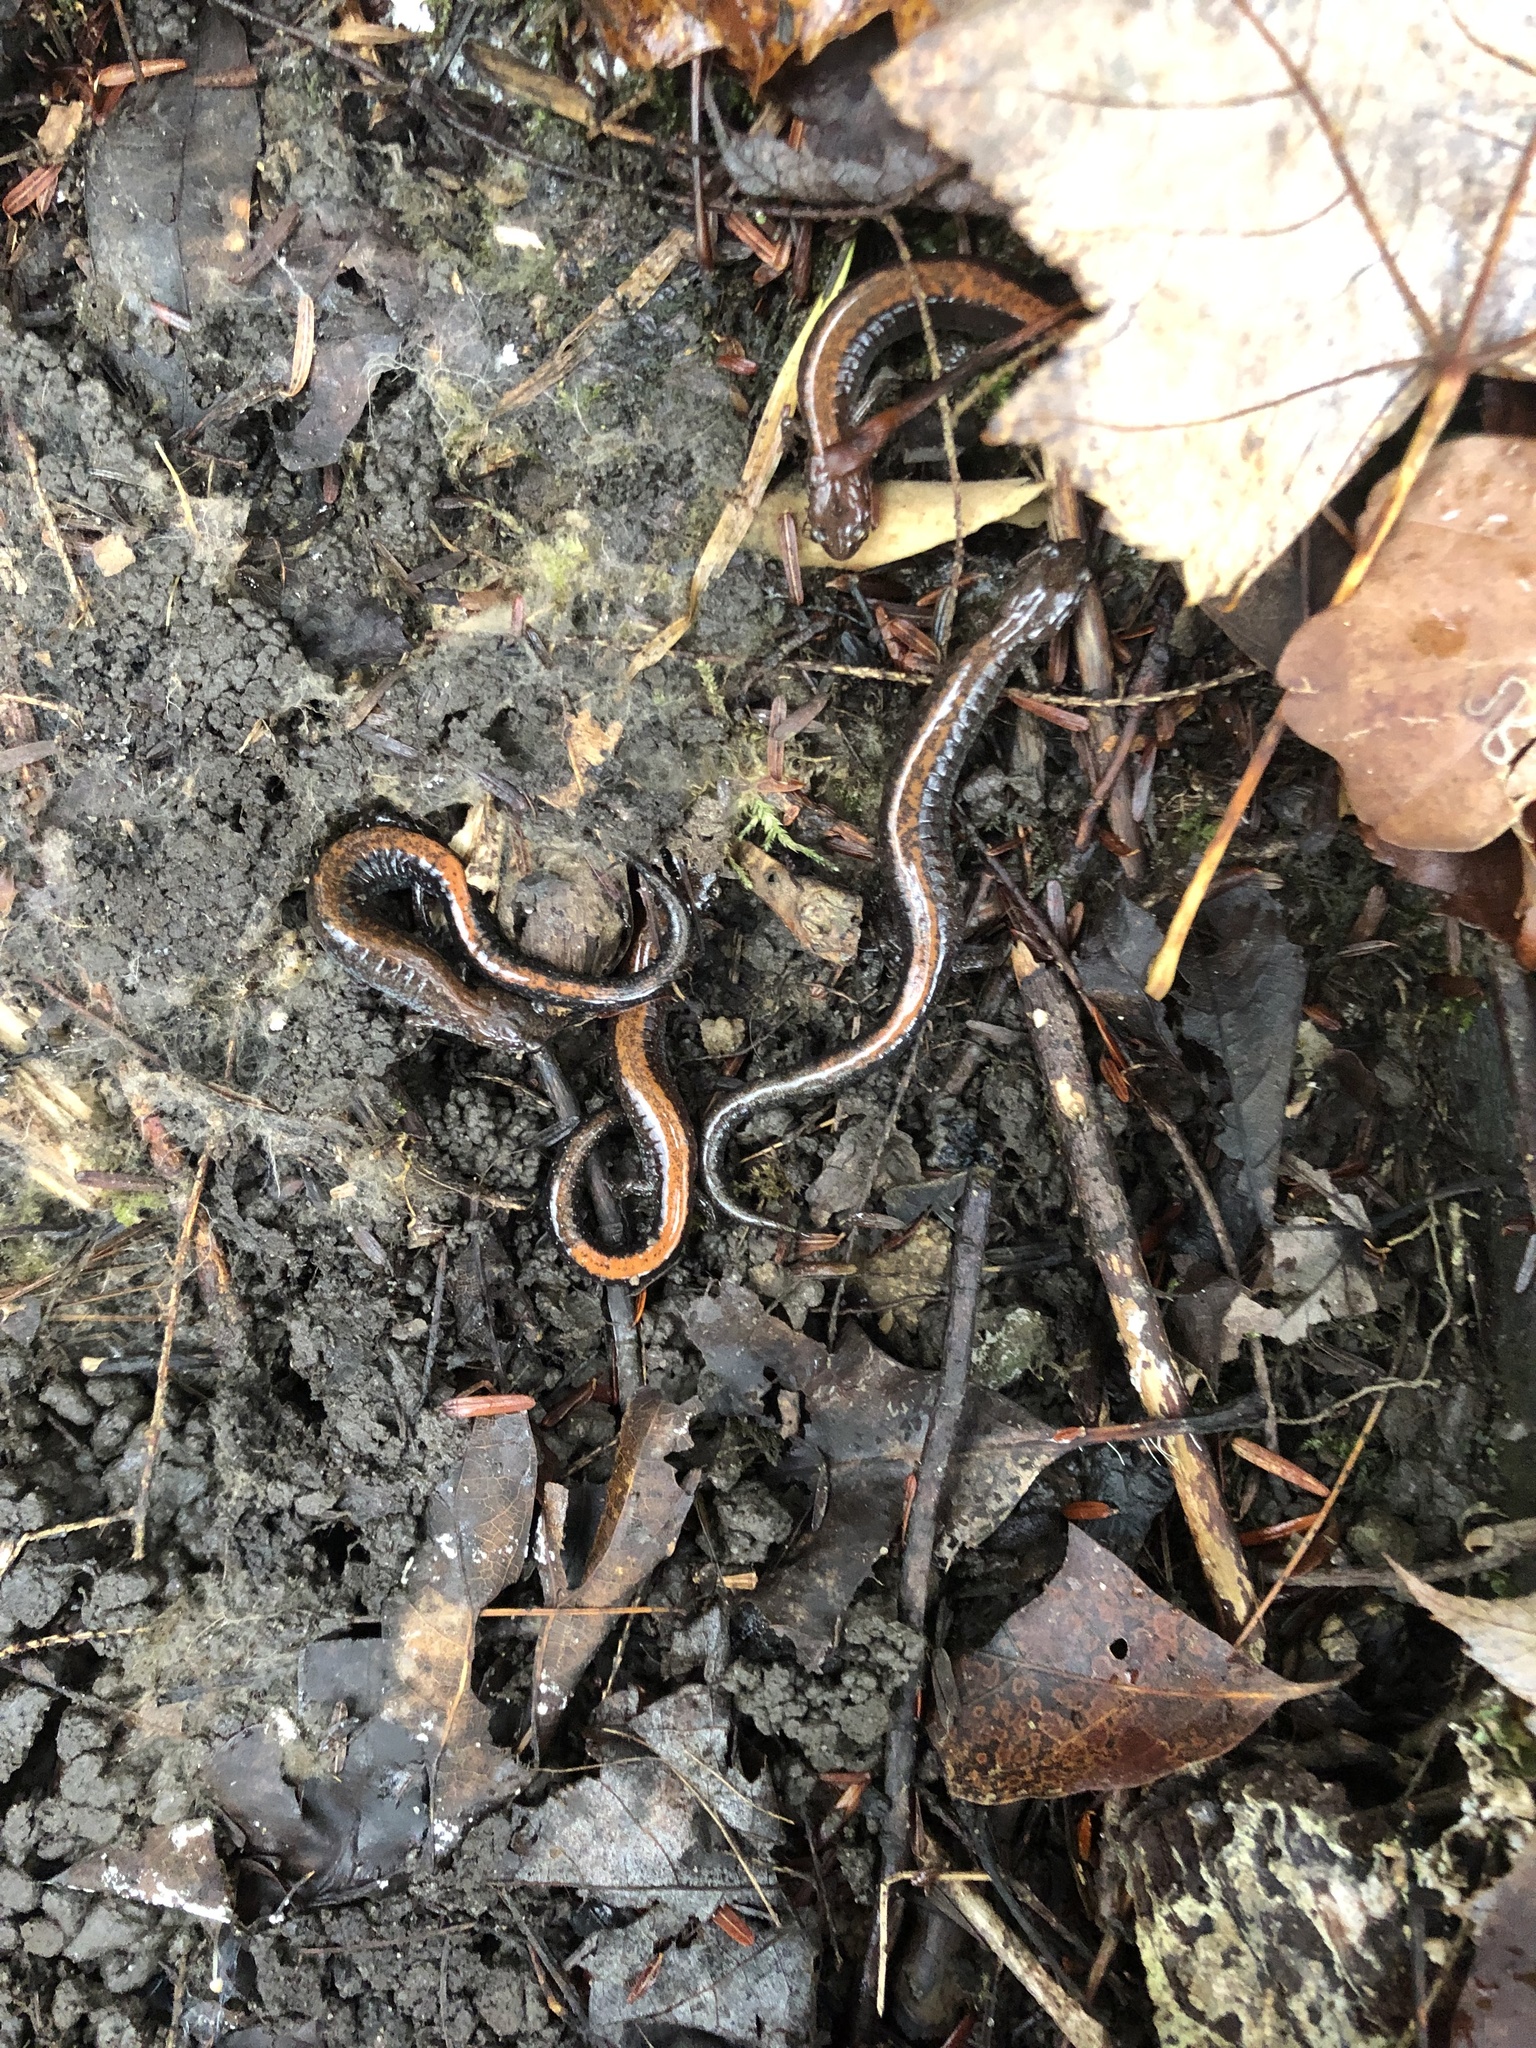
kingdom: Animalia
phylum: Chordata
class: Amphibia
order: Caudata
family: Plethodontidae
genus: Plethodon
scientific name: Plethodon cinereus
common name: Redback salamander
